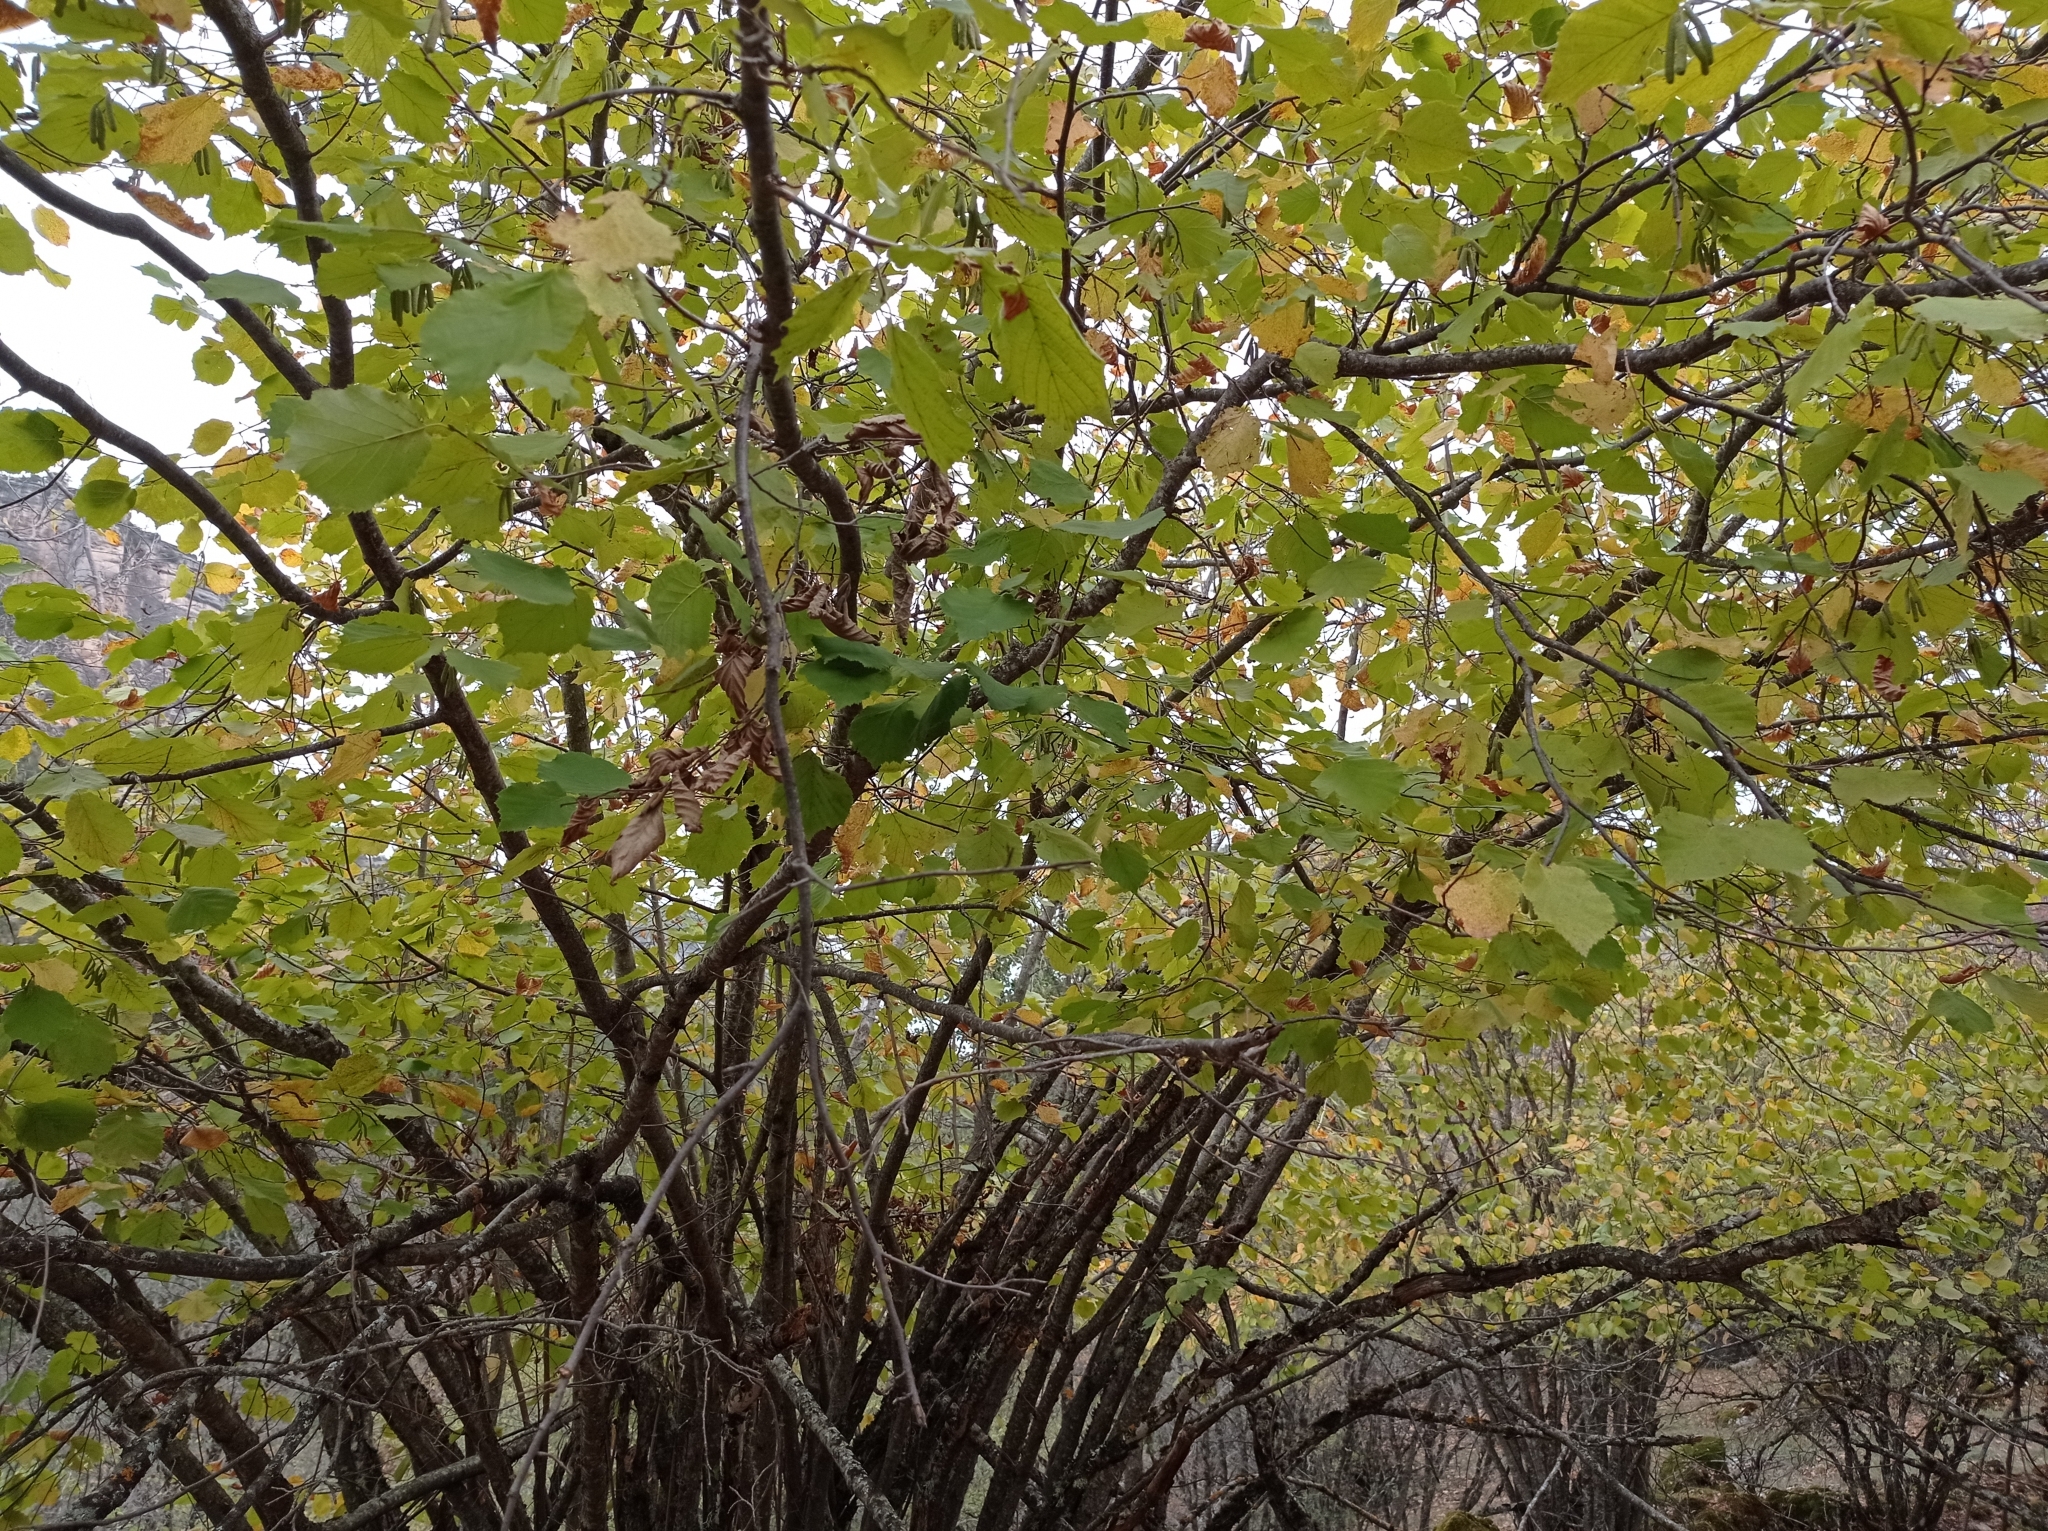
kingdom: Plantae
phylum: Tracheophyta
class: Magnoliopsida
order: Fagales
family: Betulaceae
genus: Corylus
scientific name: Corylus avellana
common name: European hazel
